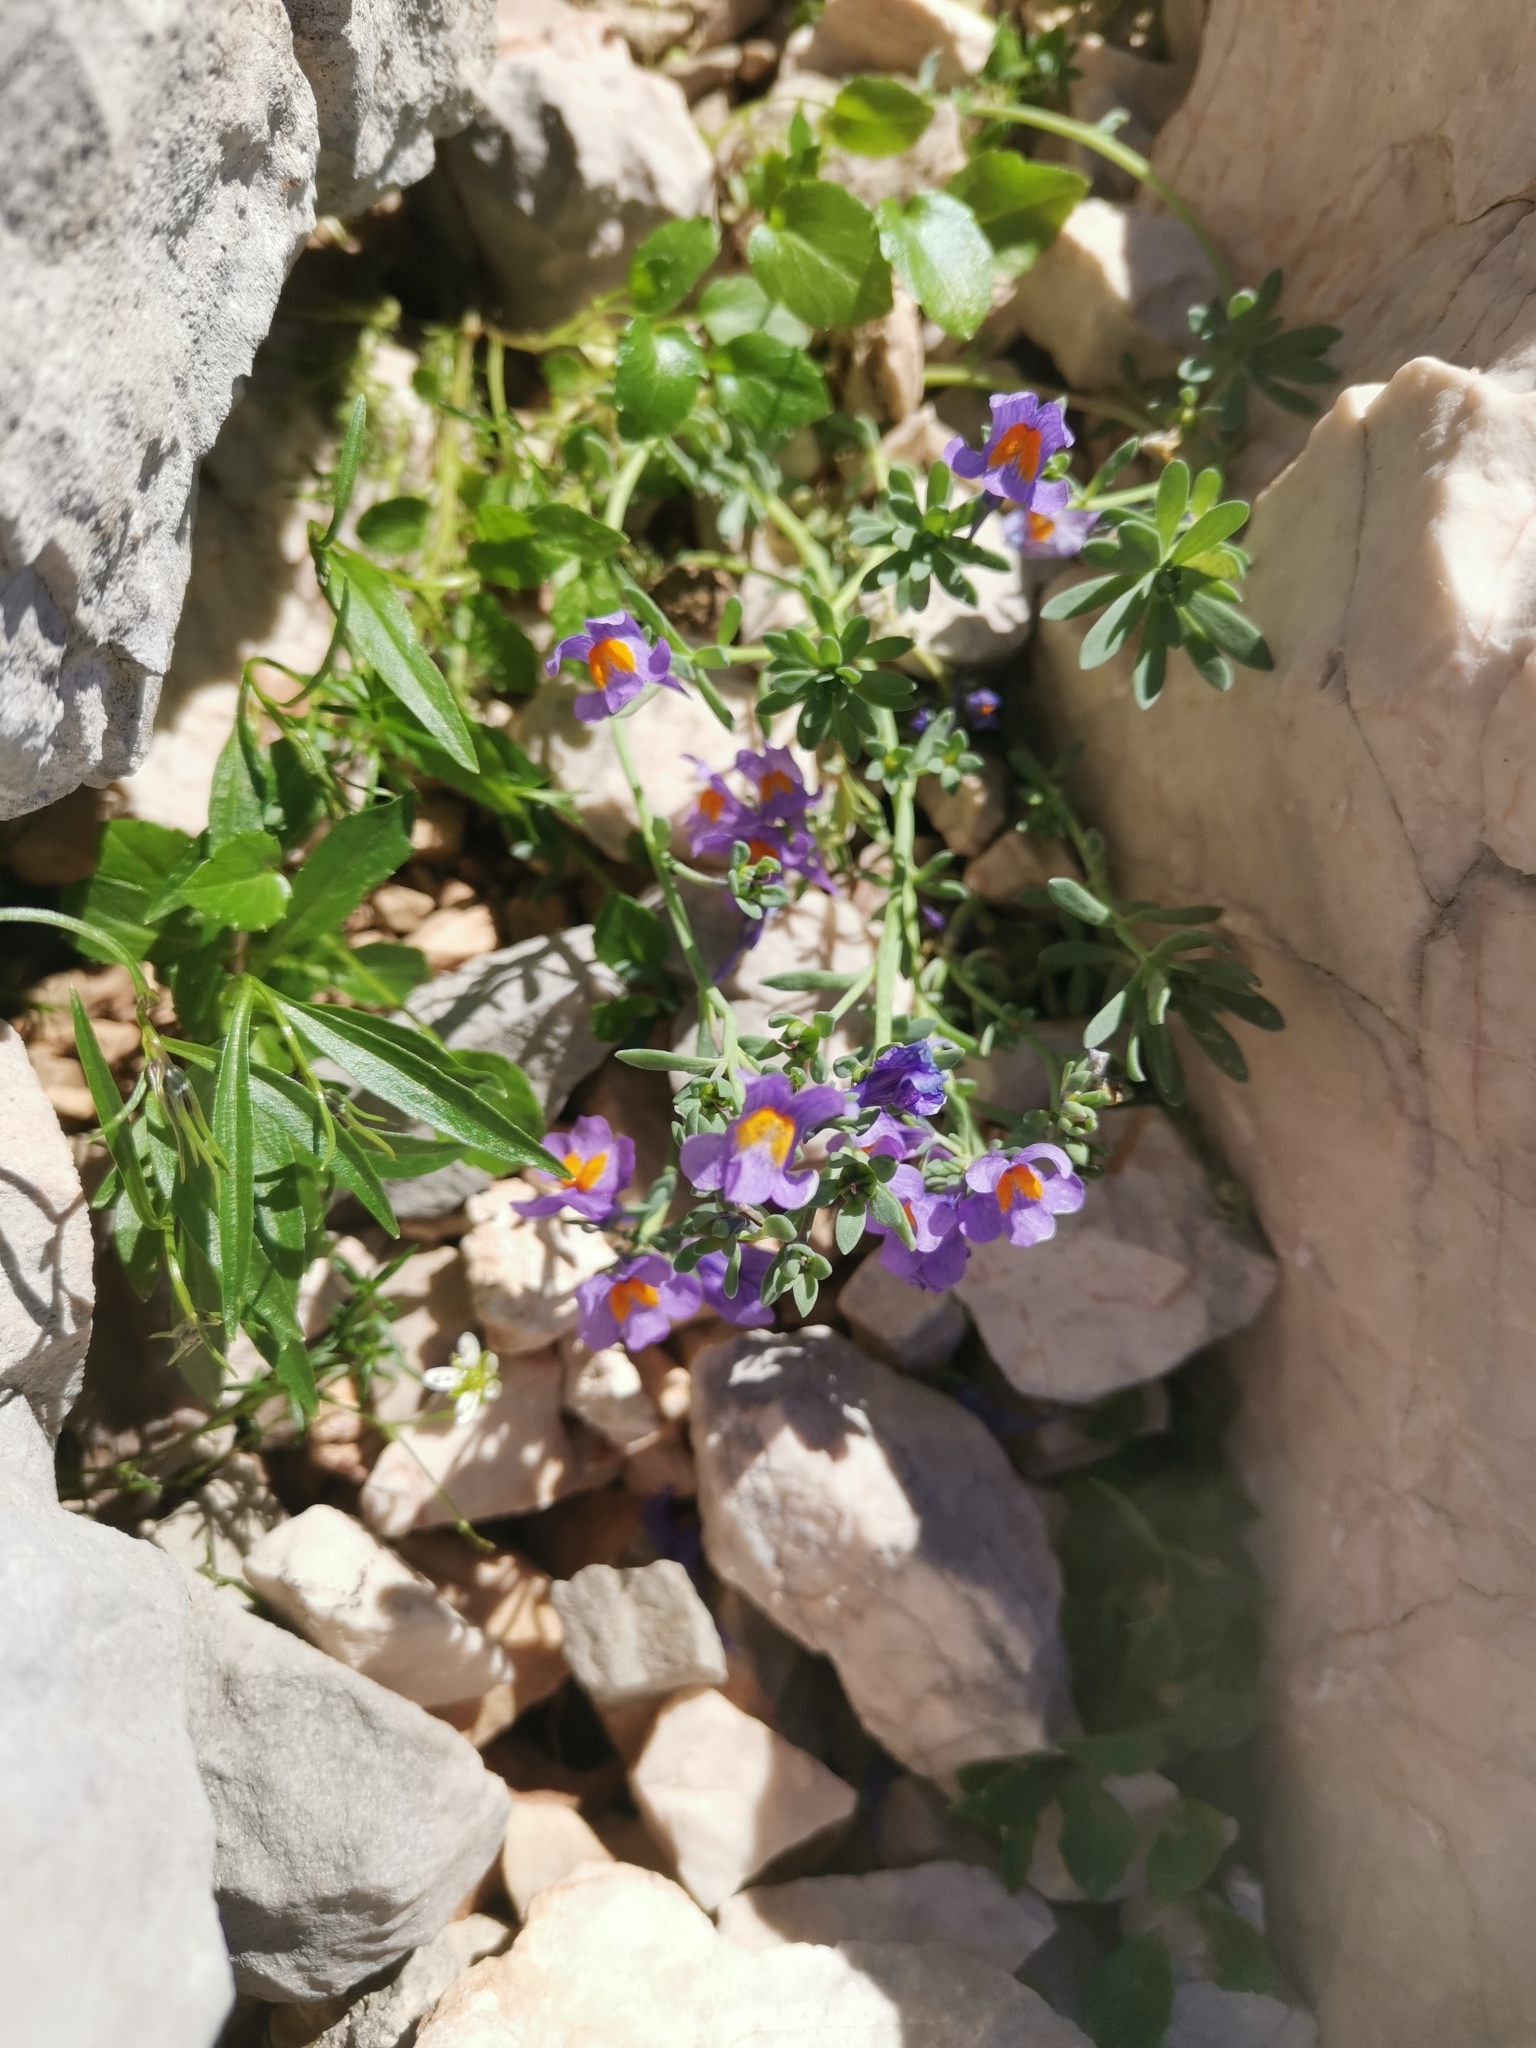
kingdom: Plantae
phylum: Tracheophyta
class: Magnoliopsida
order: Lamiales
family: Plantaginaceae
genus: Linaria
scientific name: Linaria alpina
